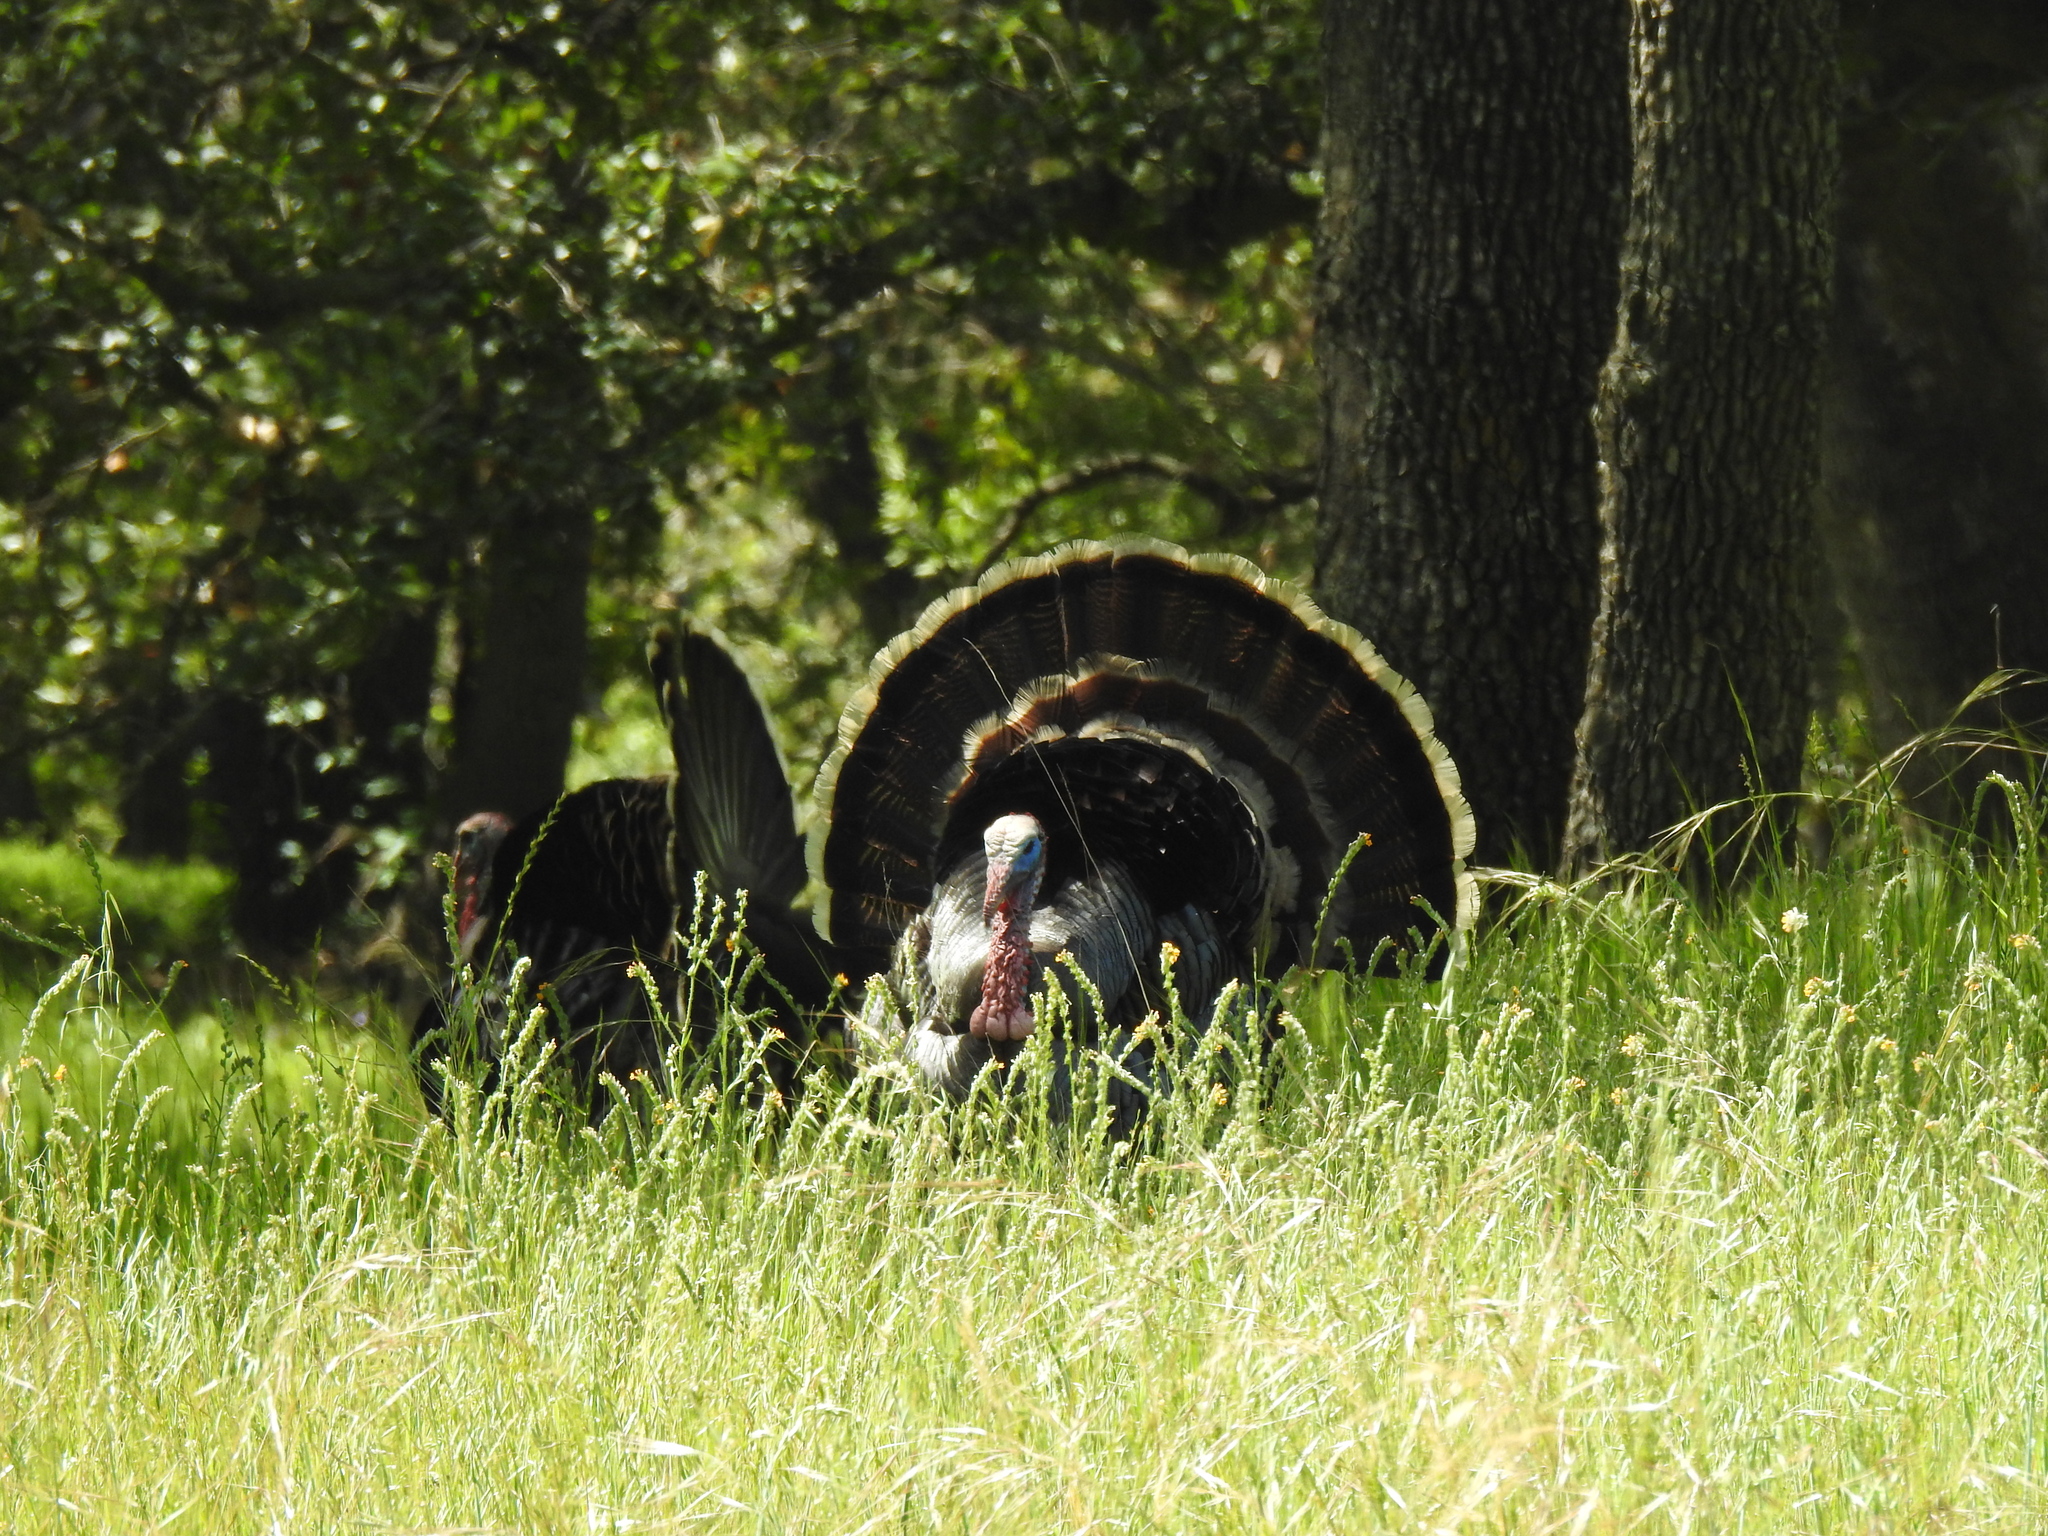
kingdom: Animalia
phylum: Chordata
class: Aves
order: Galliformes
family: Phasianidae
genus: Meleagris
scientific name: Meleagris gallopavo
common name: Wild turkey
